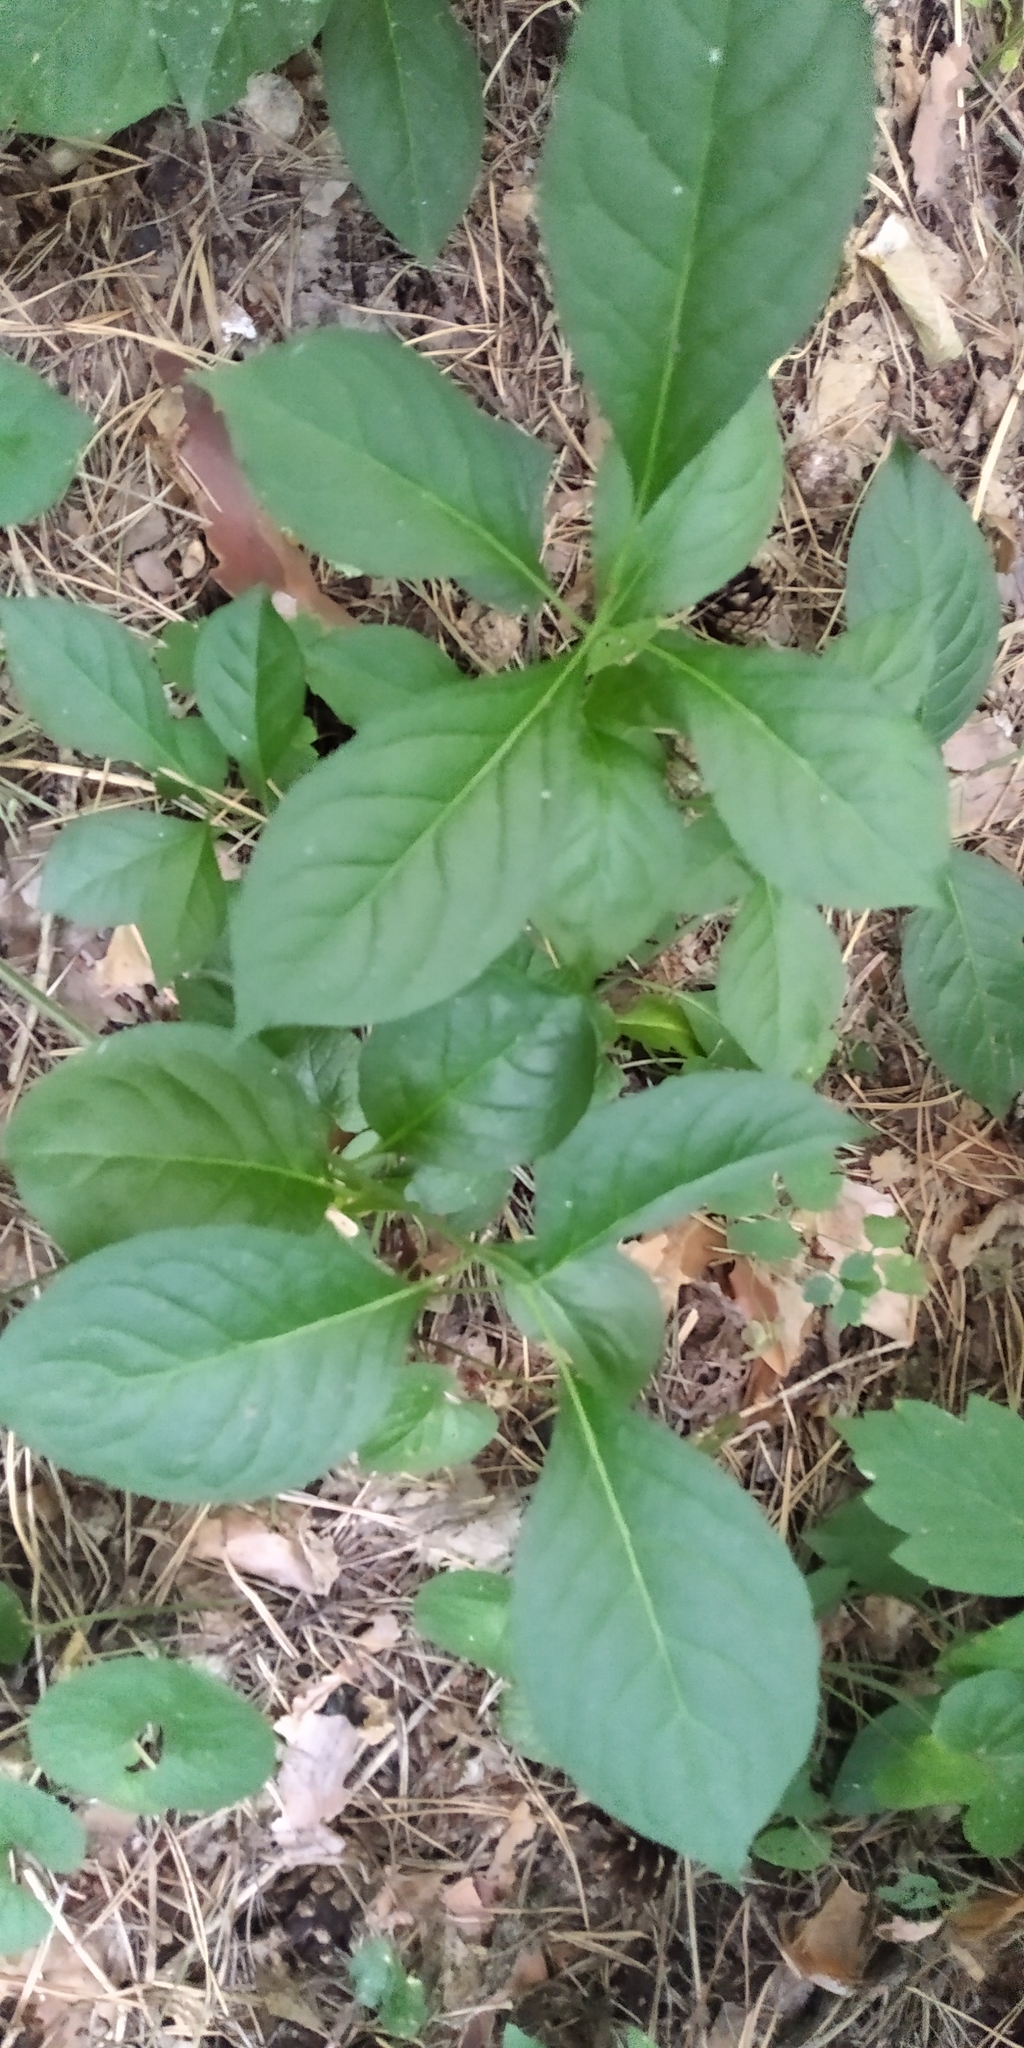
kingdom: Plantae
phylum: Tracheophyta
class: Magnoliopsida
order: Celastrales
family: Celastraceae
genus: Euonymus
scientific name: Euonymus europaeus
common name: Spindle
